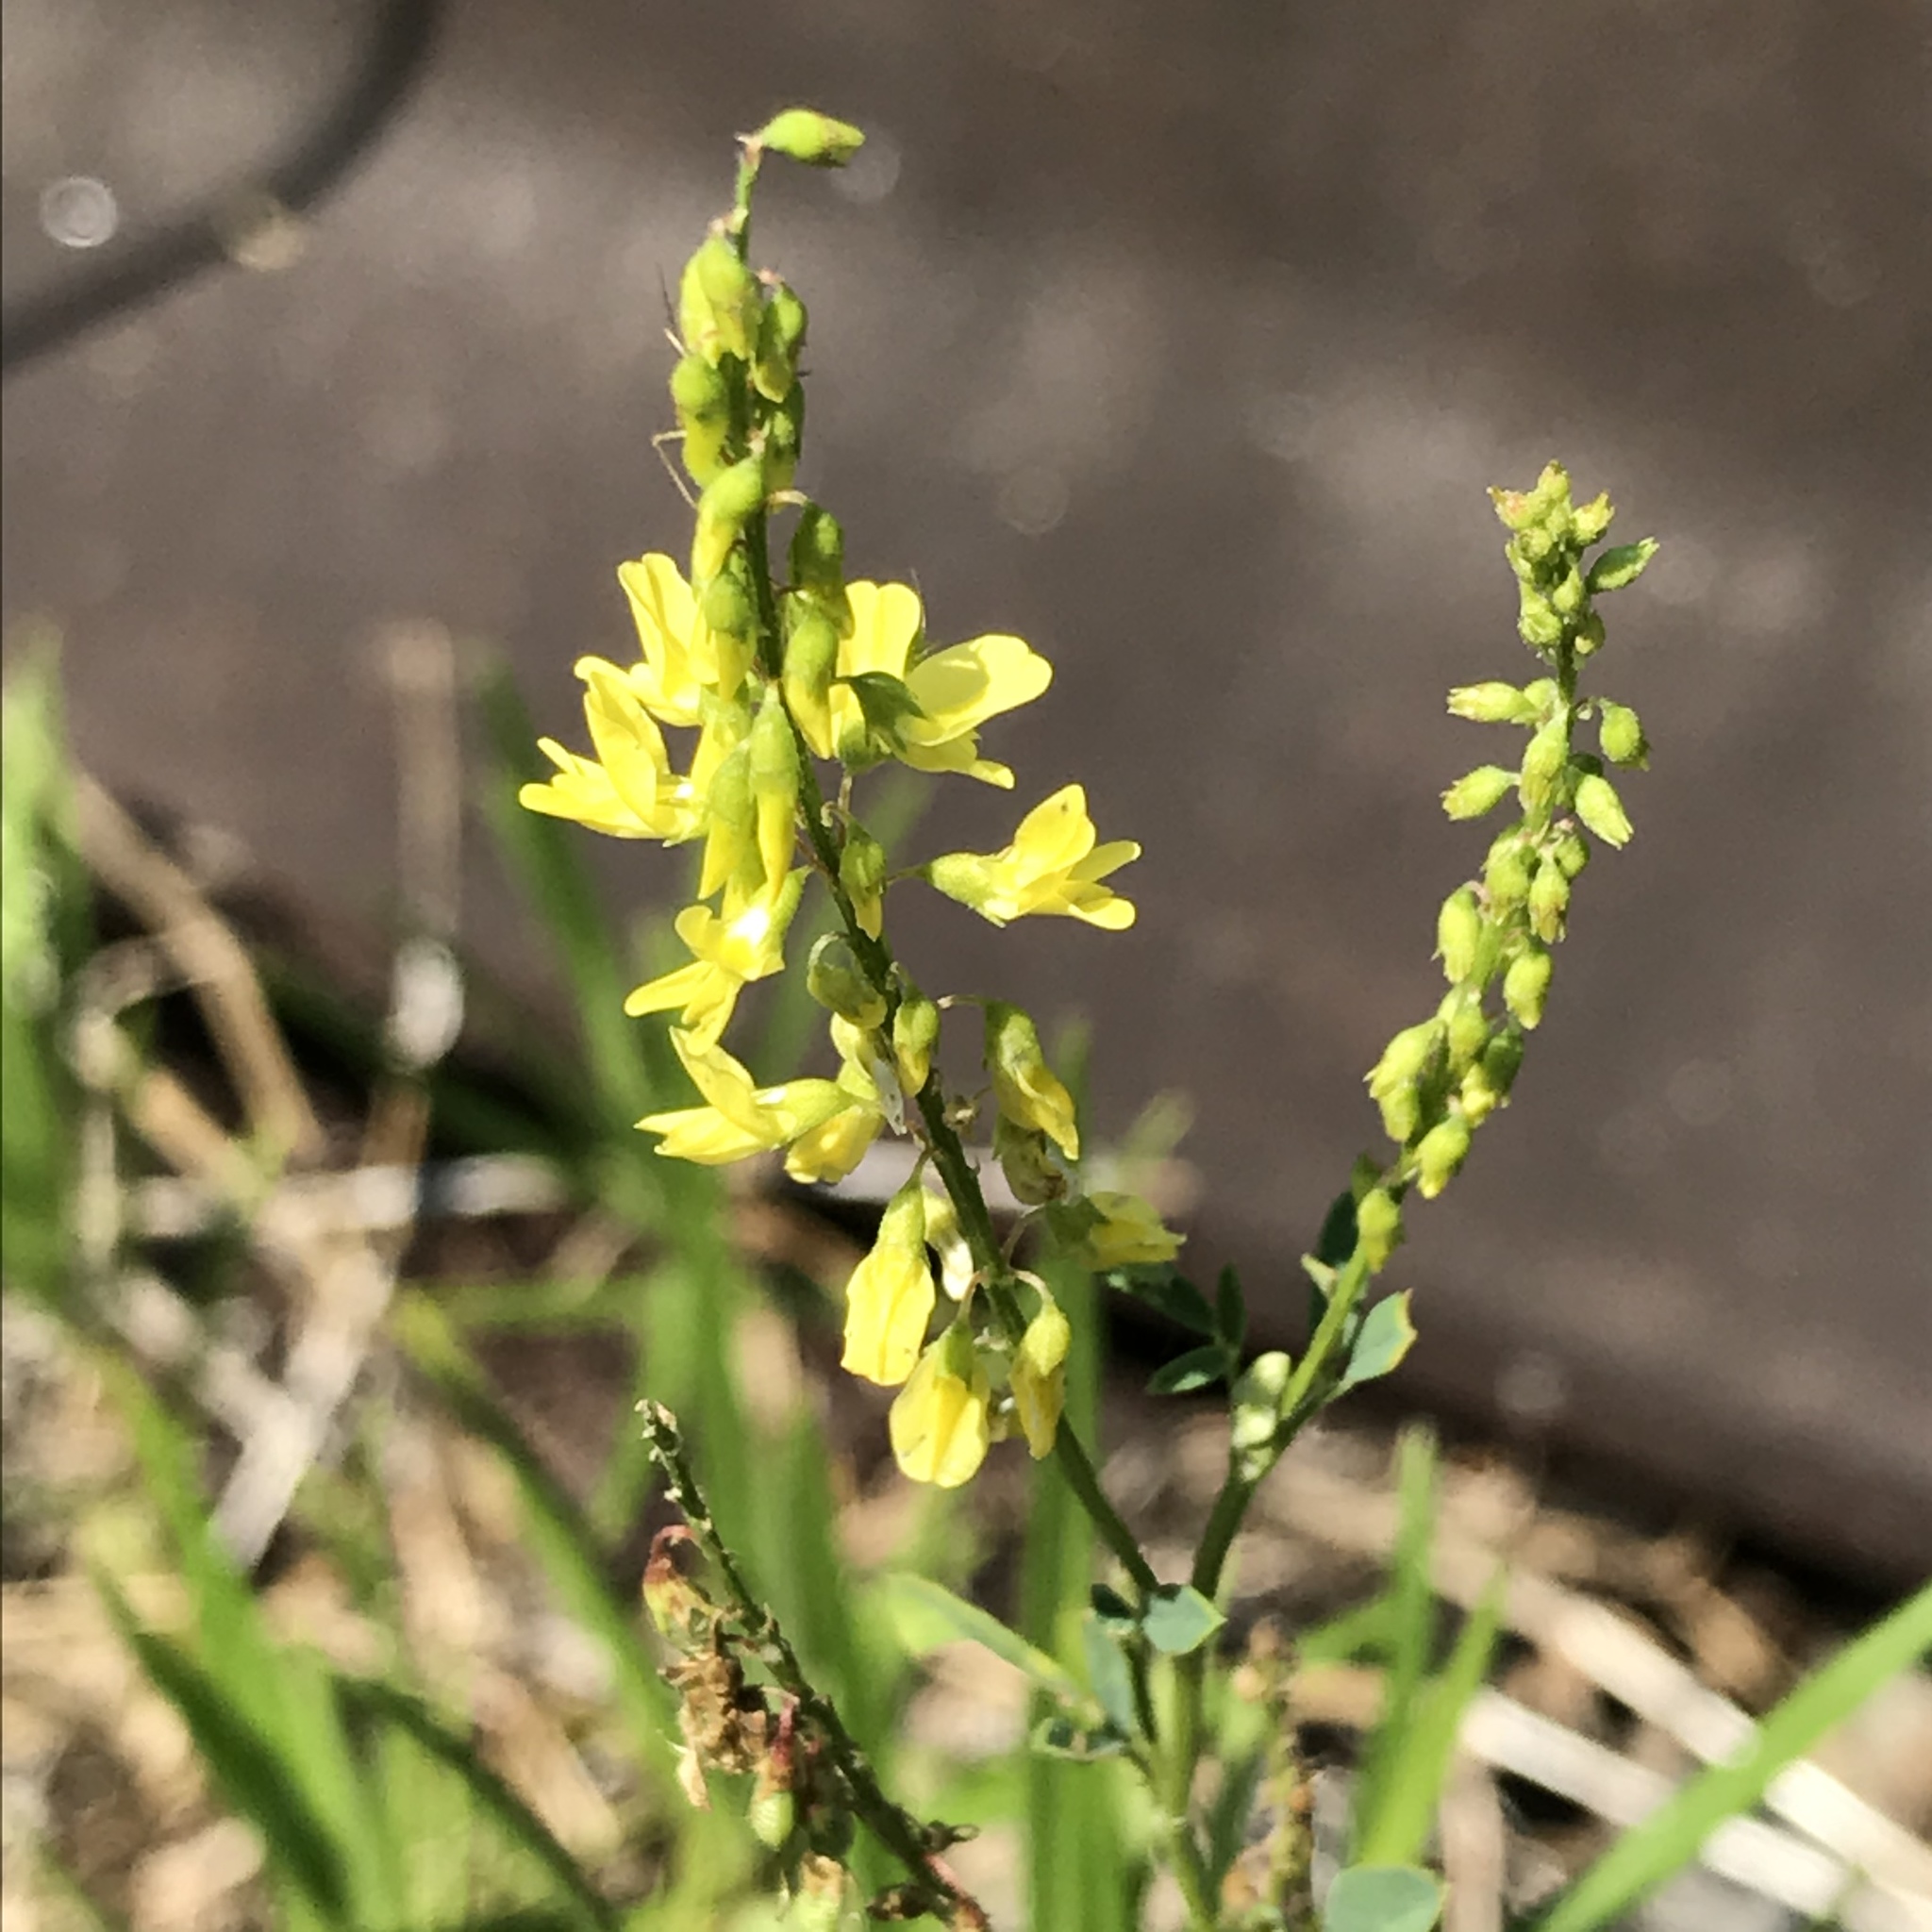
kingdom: Plantae
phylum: Tracheophyta
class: Magnoliopsida
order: Fabales
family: Fabaceae
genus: Melilotus
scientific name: Melilotus officinalis
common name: Sweetclover
